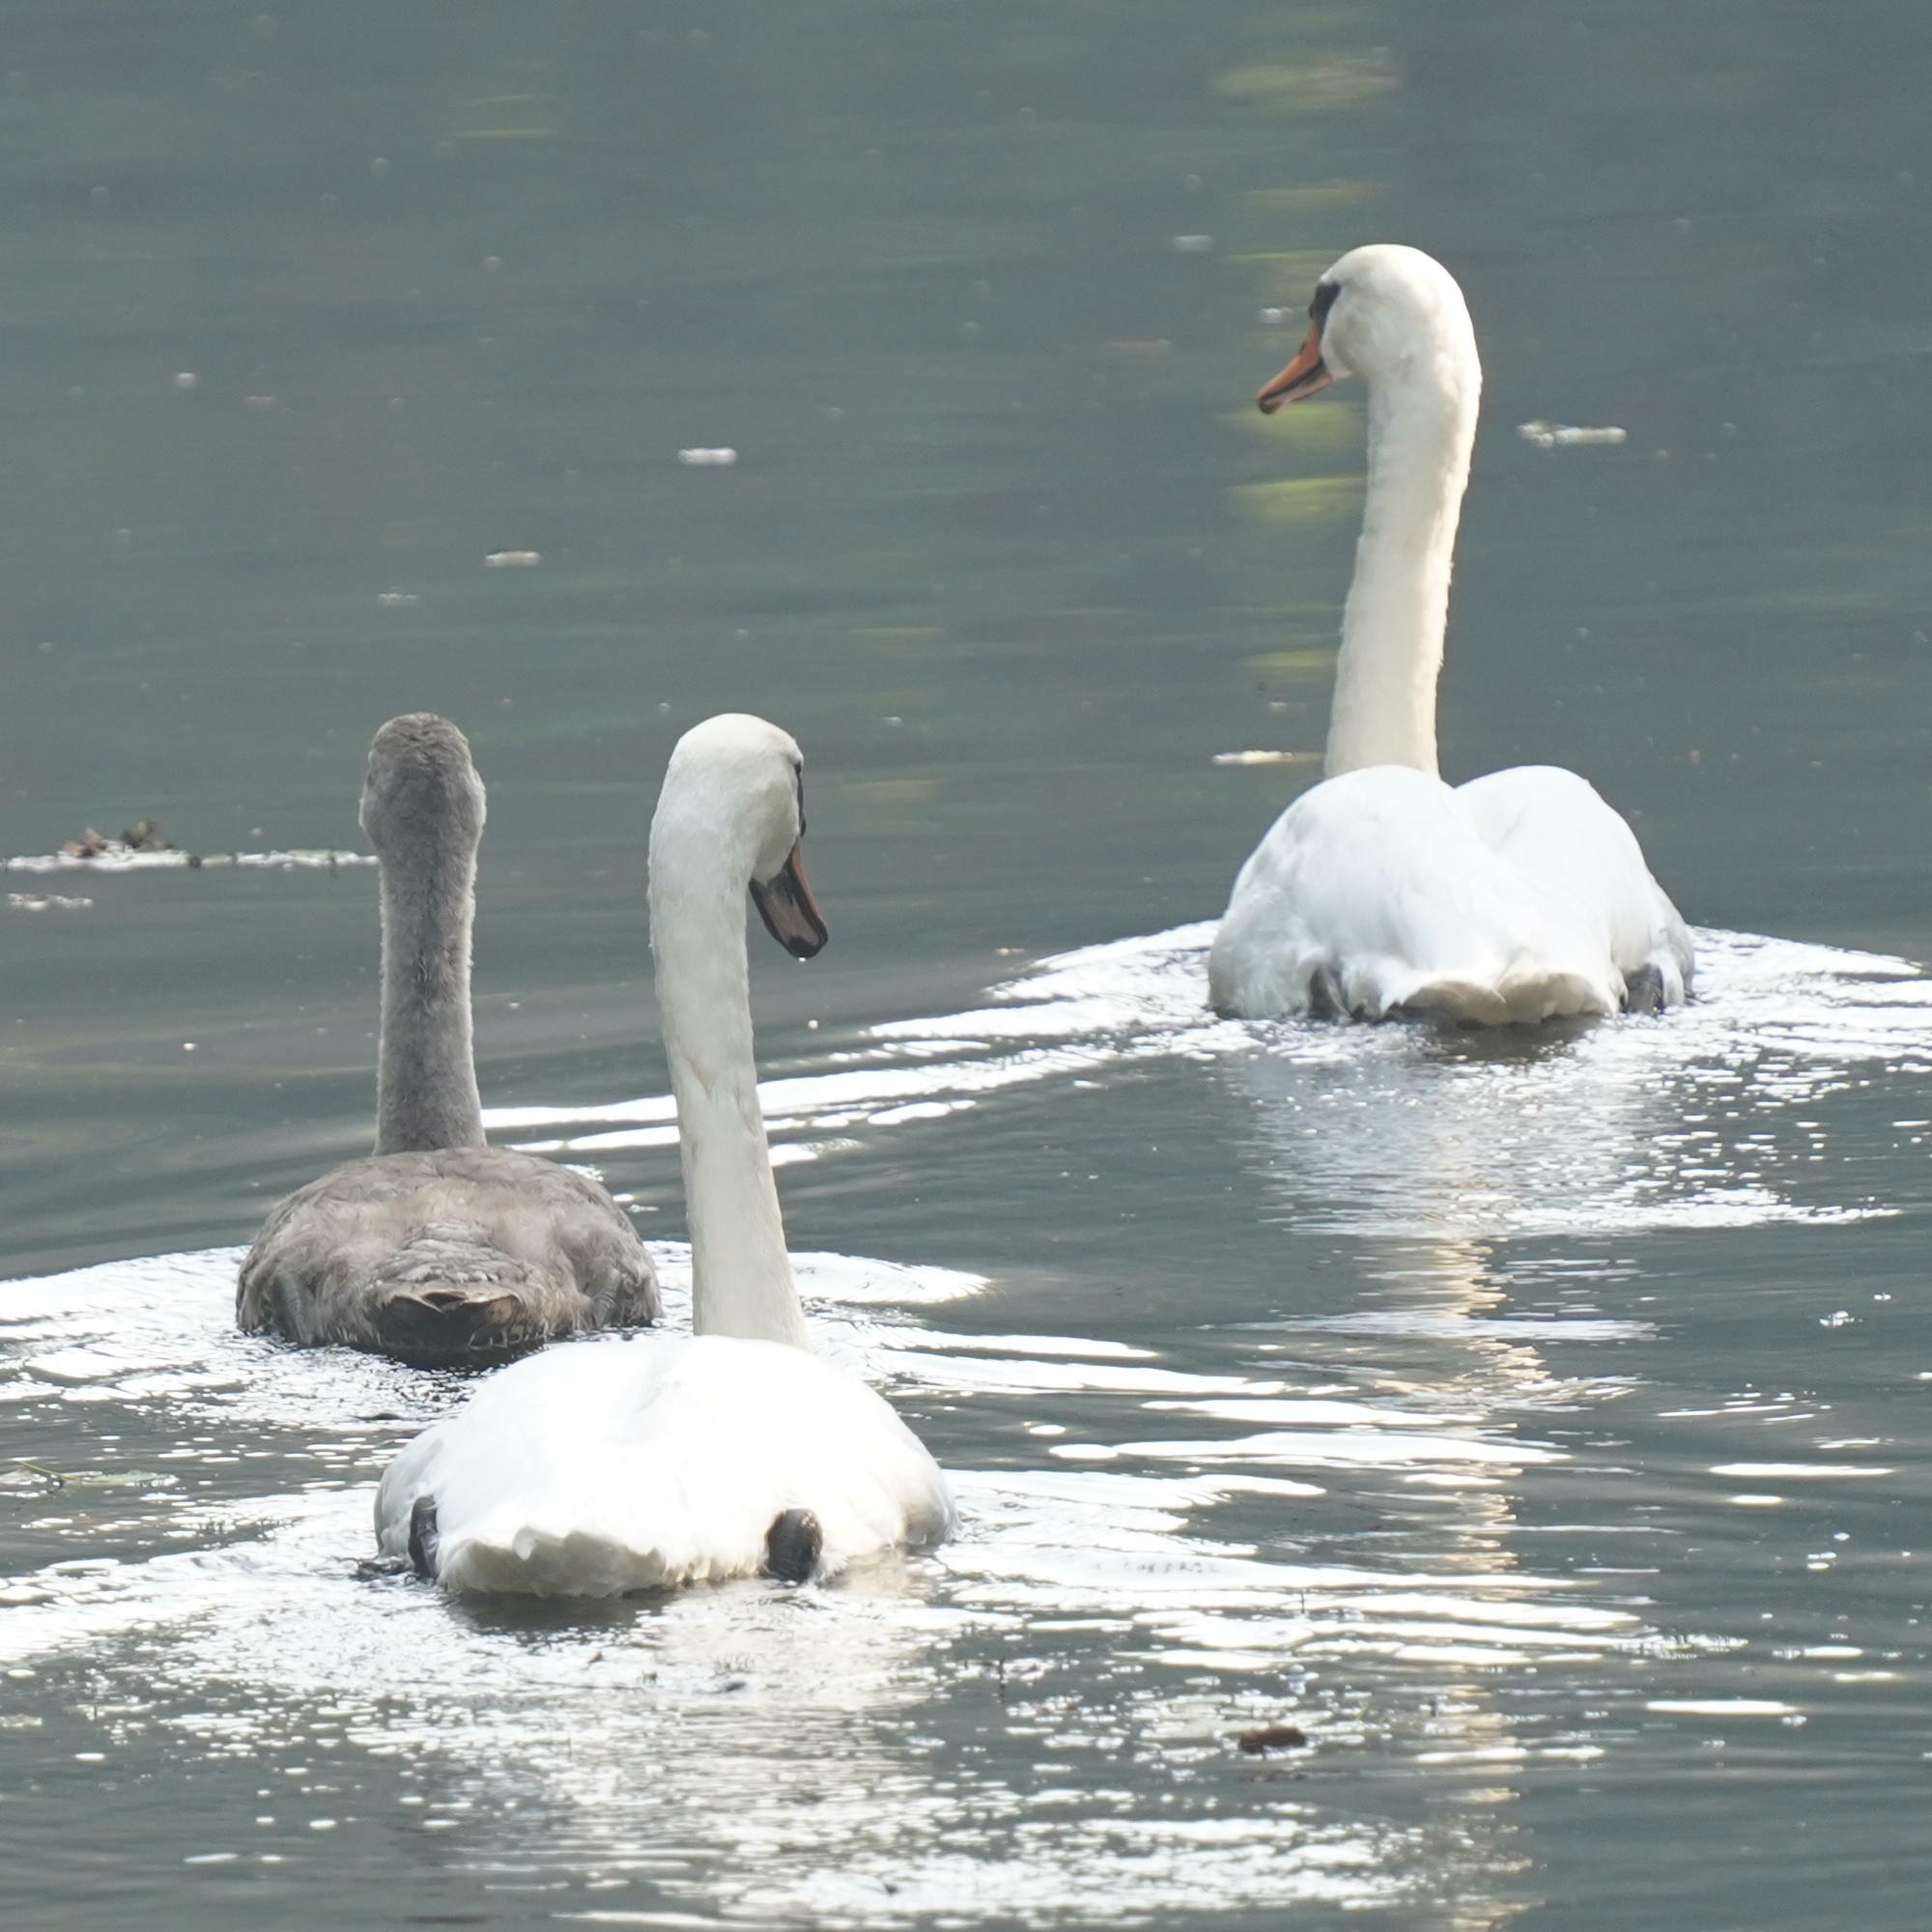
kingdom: Animalia
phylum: Chordata
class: Aves
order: Anseriformes
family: Anatidae
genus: Cygnus
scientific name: Cygnus olor
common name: Mute swan
